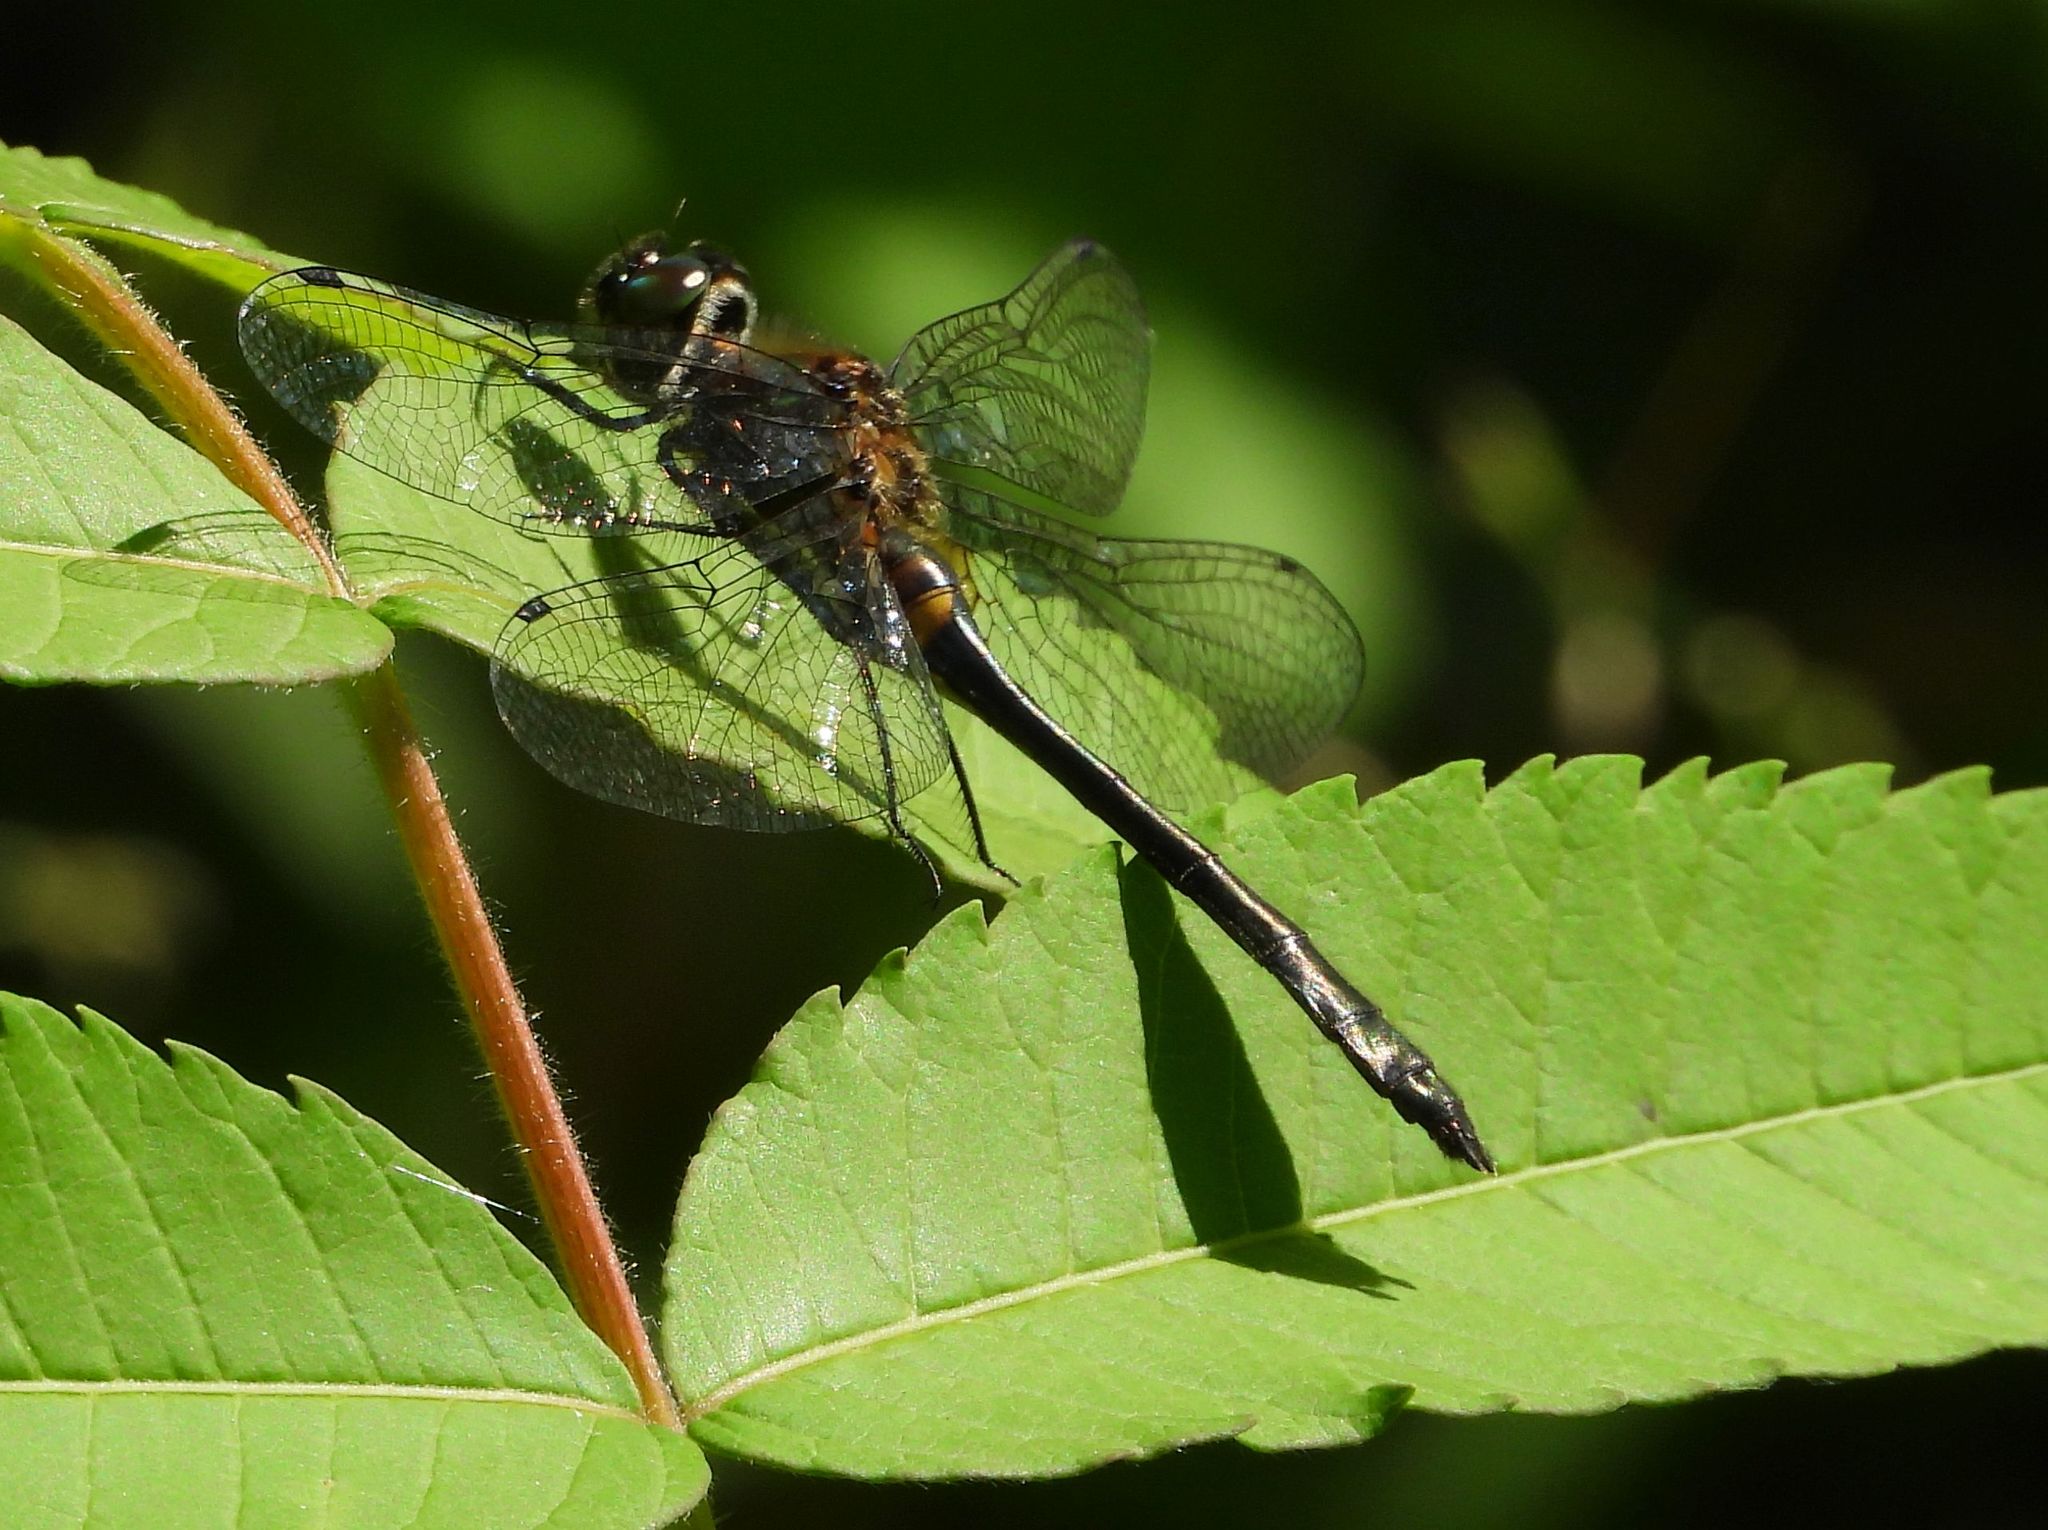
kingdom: Animalia
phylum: Arthropoda
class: Insecta
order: Odonata
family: Corduliidae
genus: Dorocordulia
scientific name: Dorocordulia libera
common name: Racket-tailed emerald
